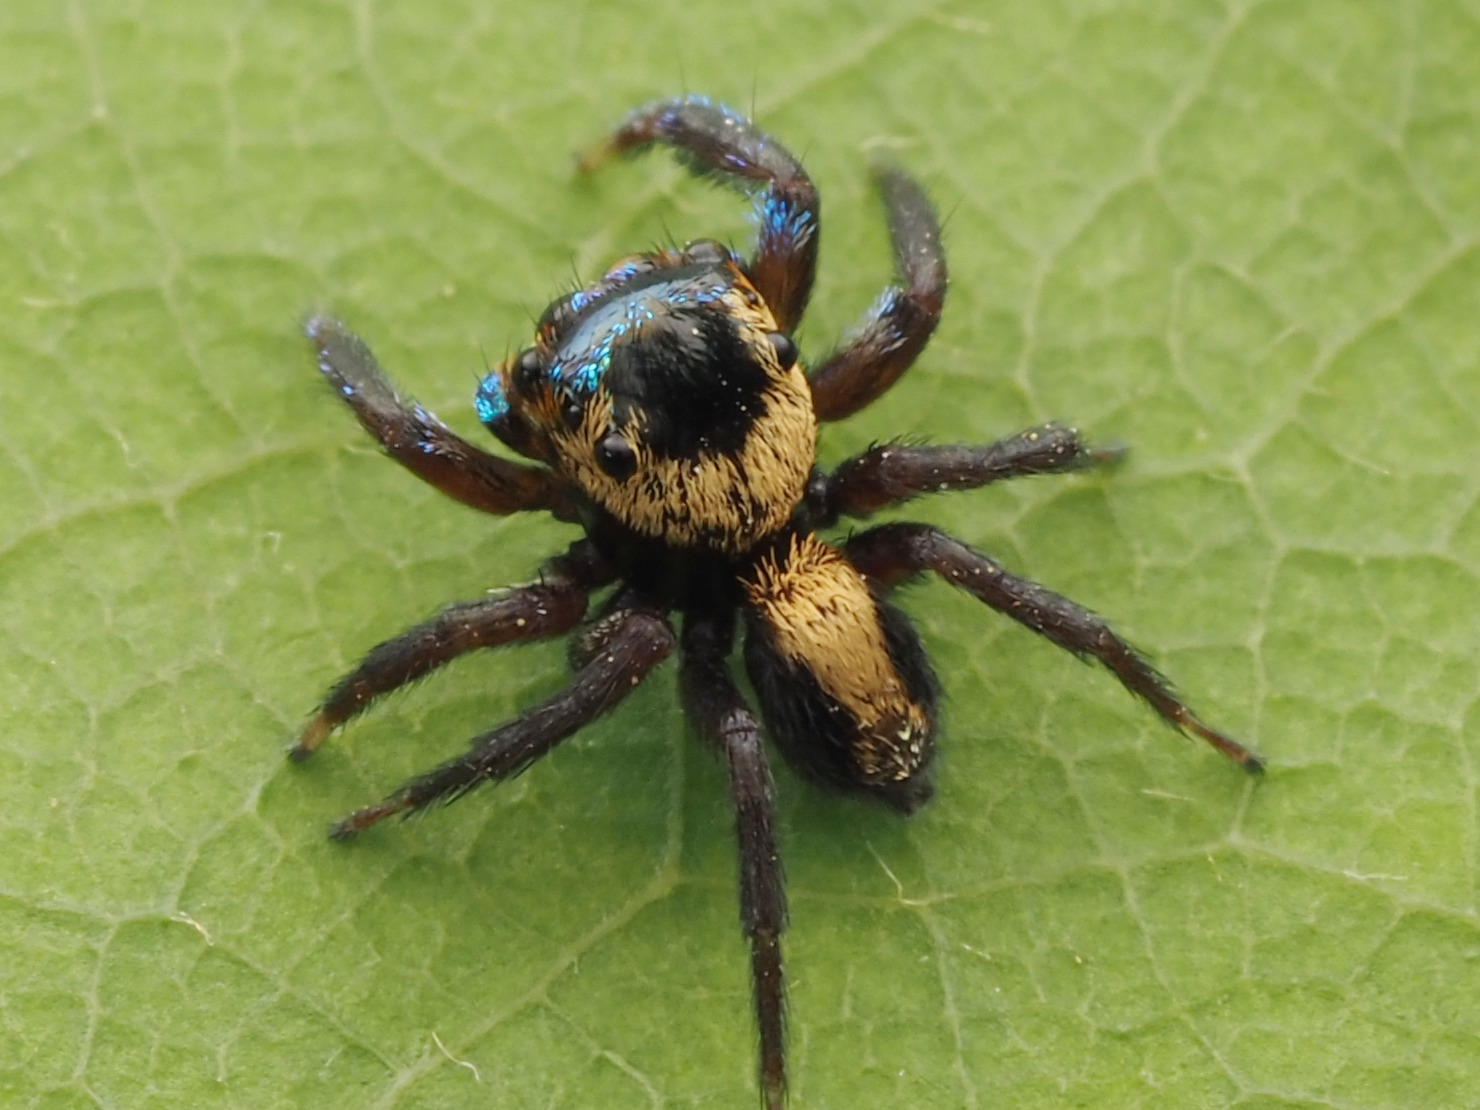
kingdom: Animalia
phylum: Arthropoda
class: Arachnida
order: Araneae
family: Salticidae
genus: Anasaitis
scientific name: Anasaitis canalis
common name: Jumping spiders
